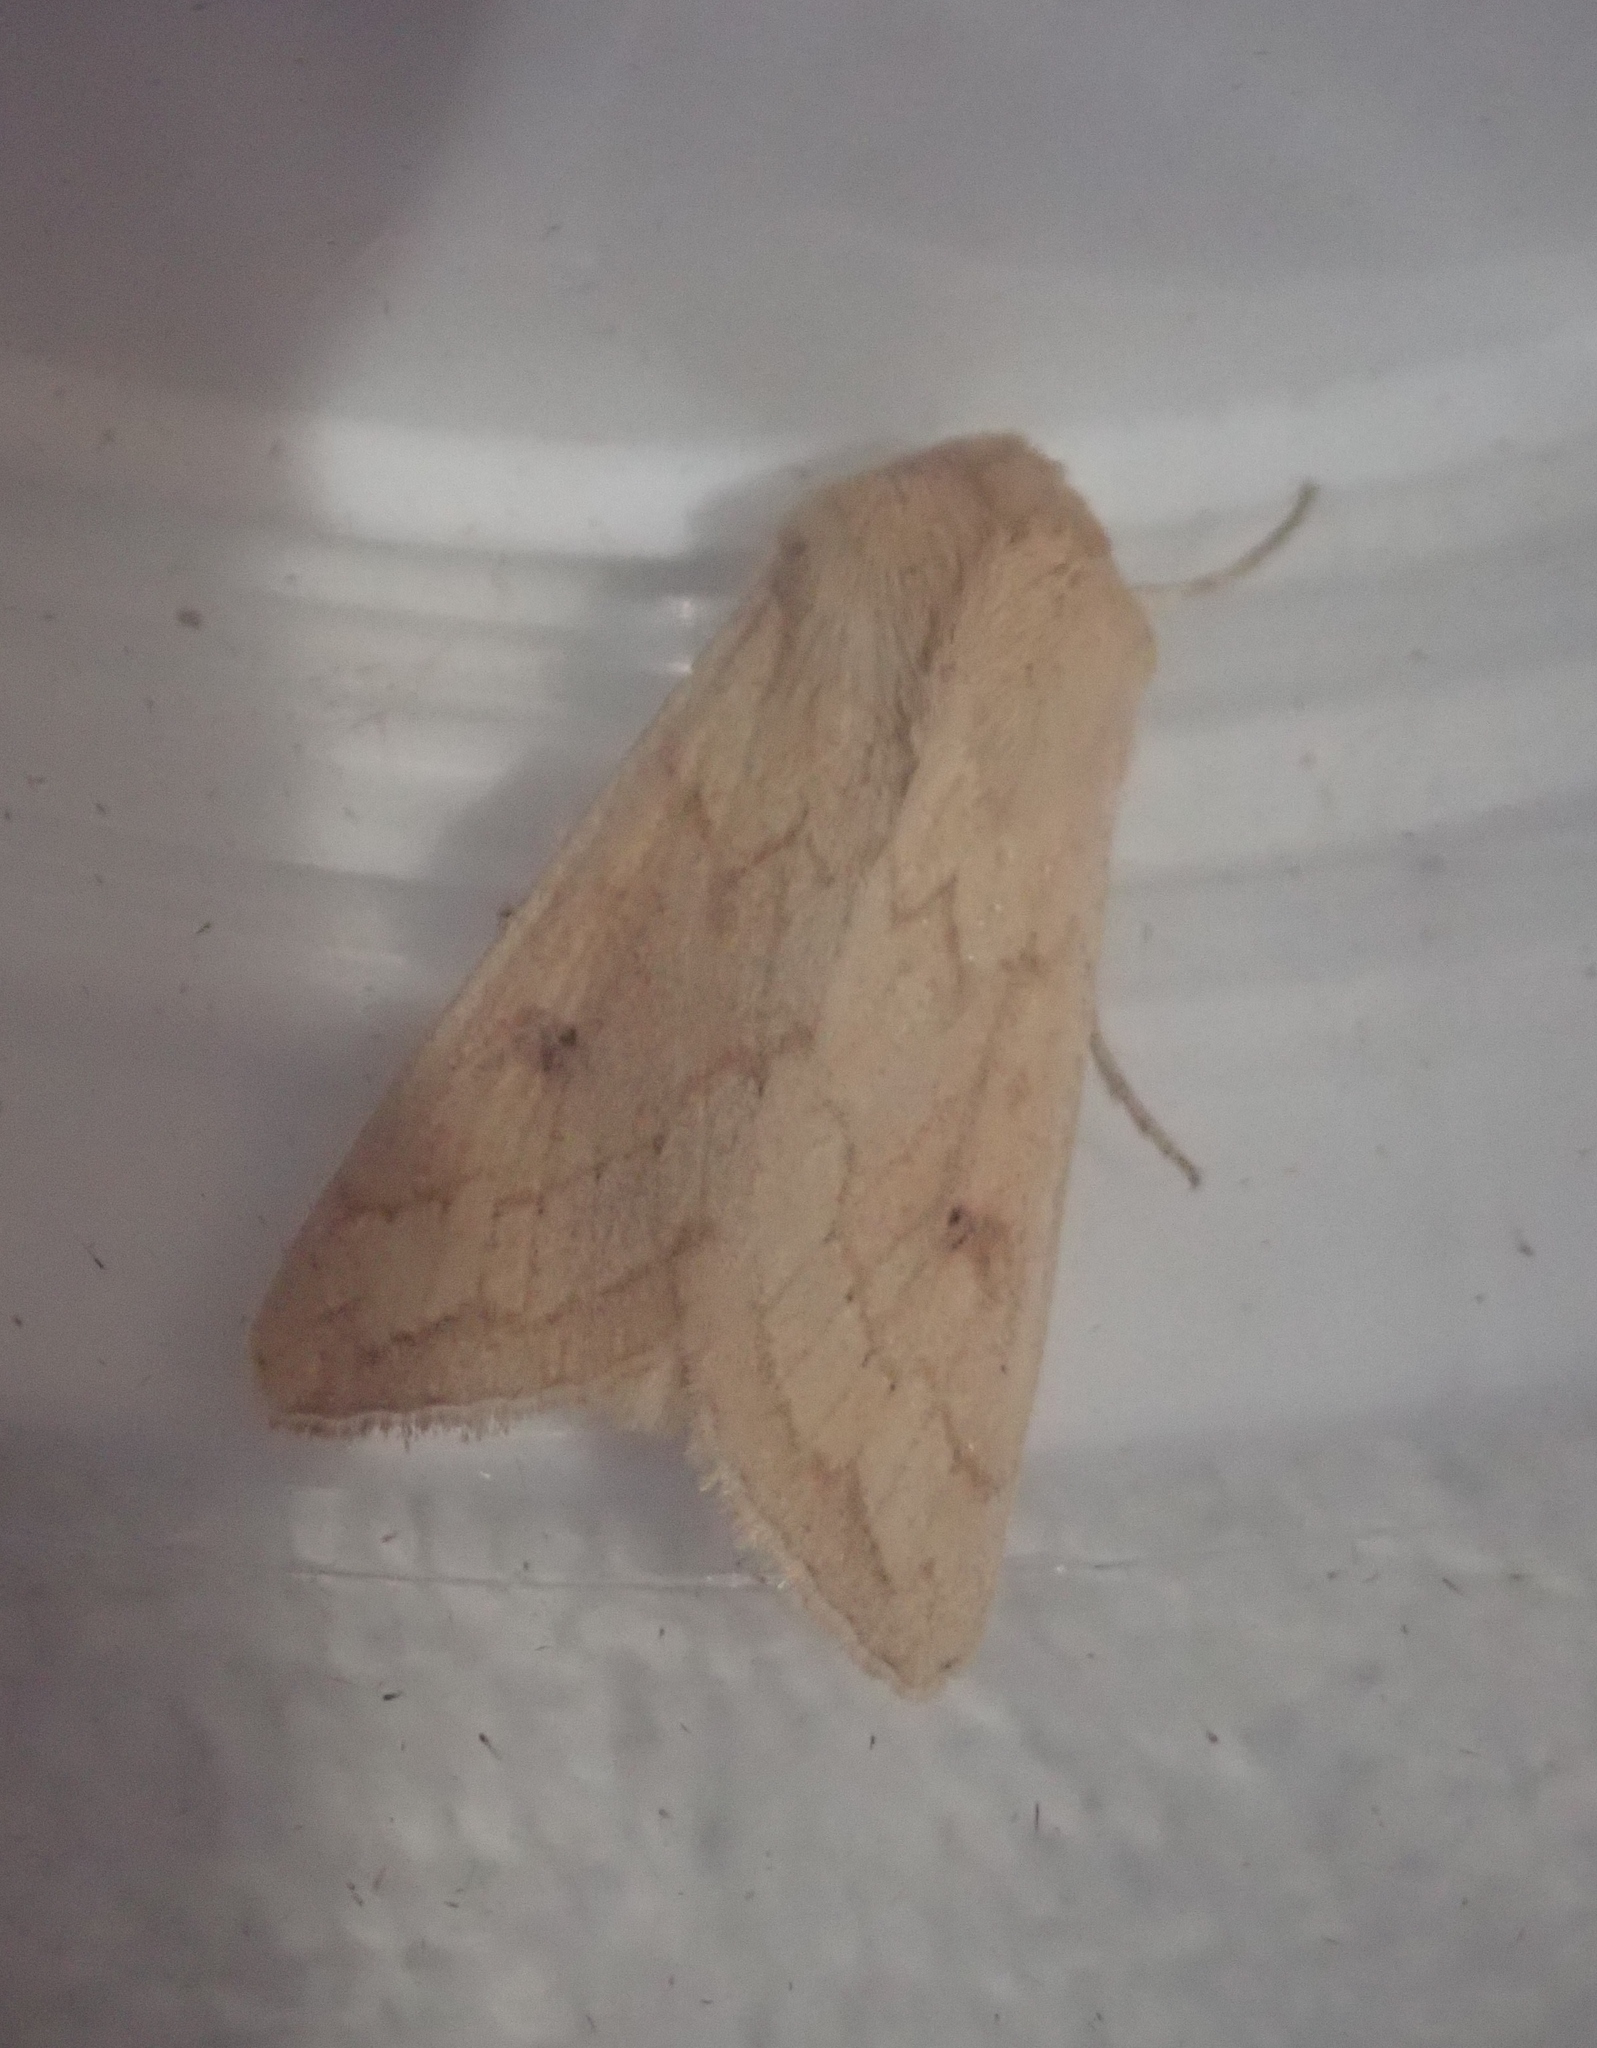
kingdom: Animalia
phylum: Arthropoda
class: Insecta
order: Lepidoptera
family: Noctuidae
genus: Mythimna
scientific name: Mythimna vitellina
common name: Delicate
